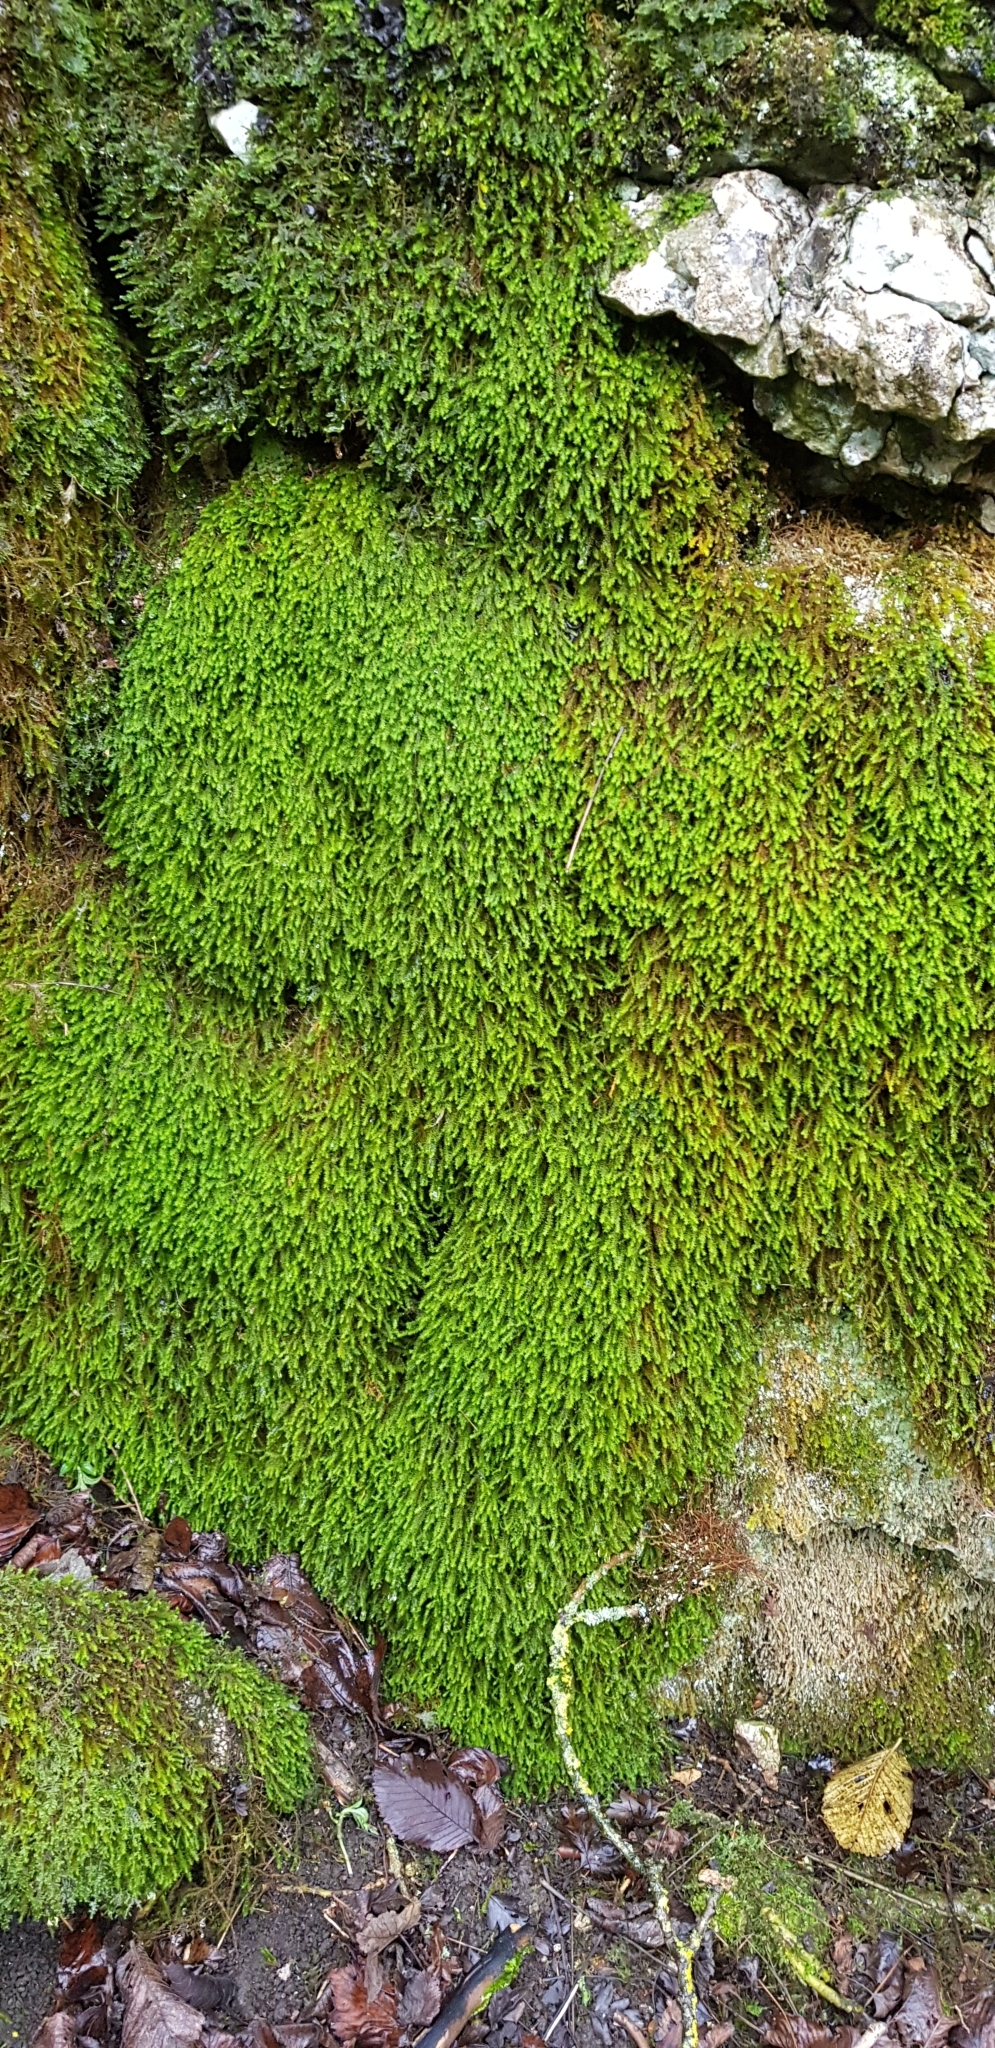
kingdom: Plantae
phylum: Bryophyta
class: Bryopsida
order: Hypnales
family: Anomodontaceae
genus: Anomodon
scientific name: Anomodon viticulosus
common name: Tall anomodon
